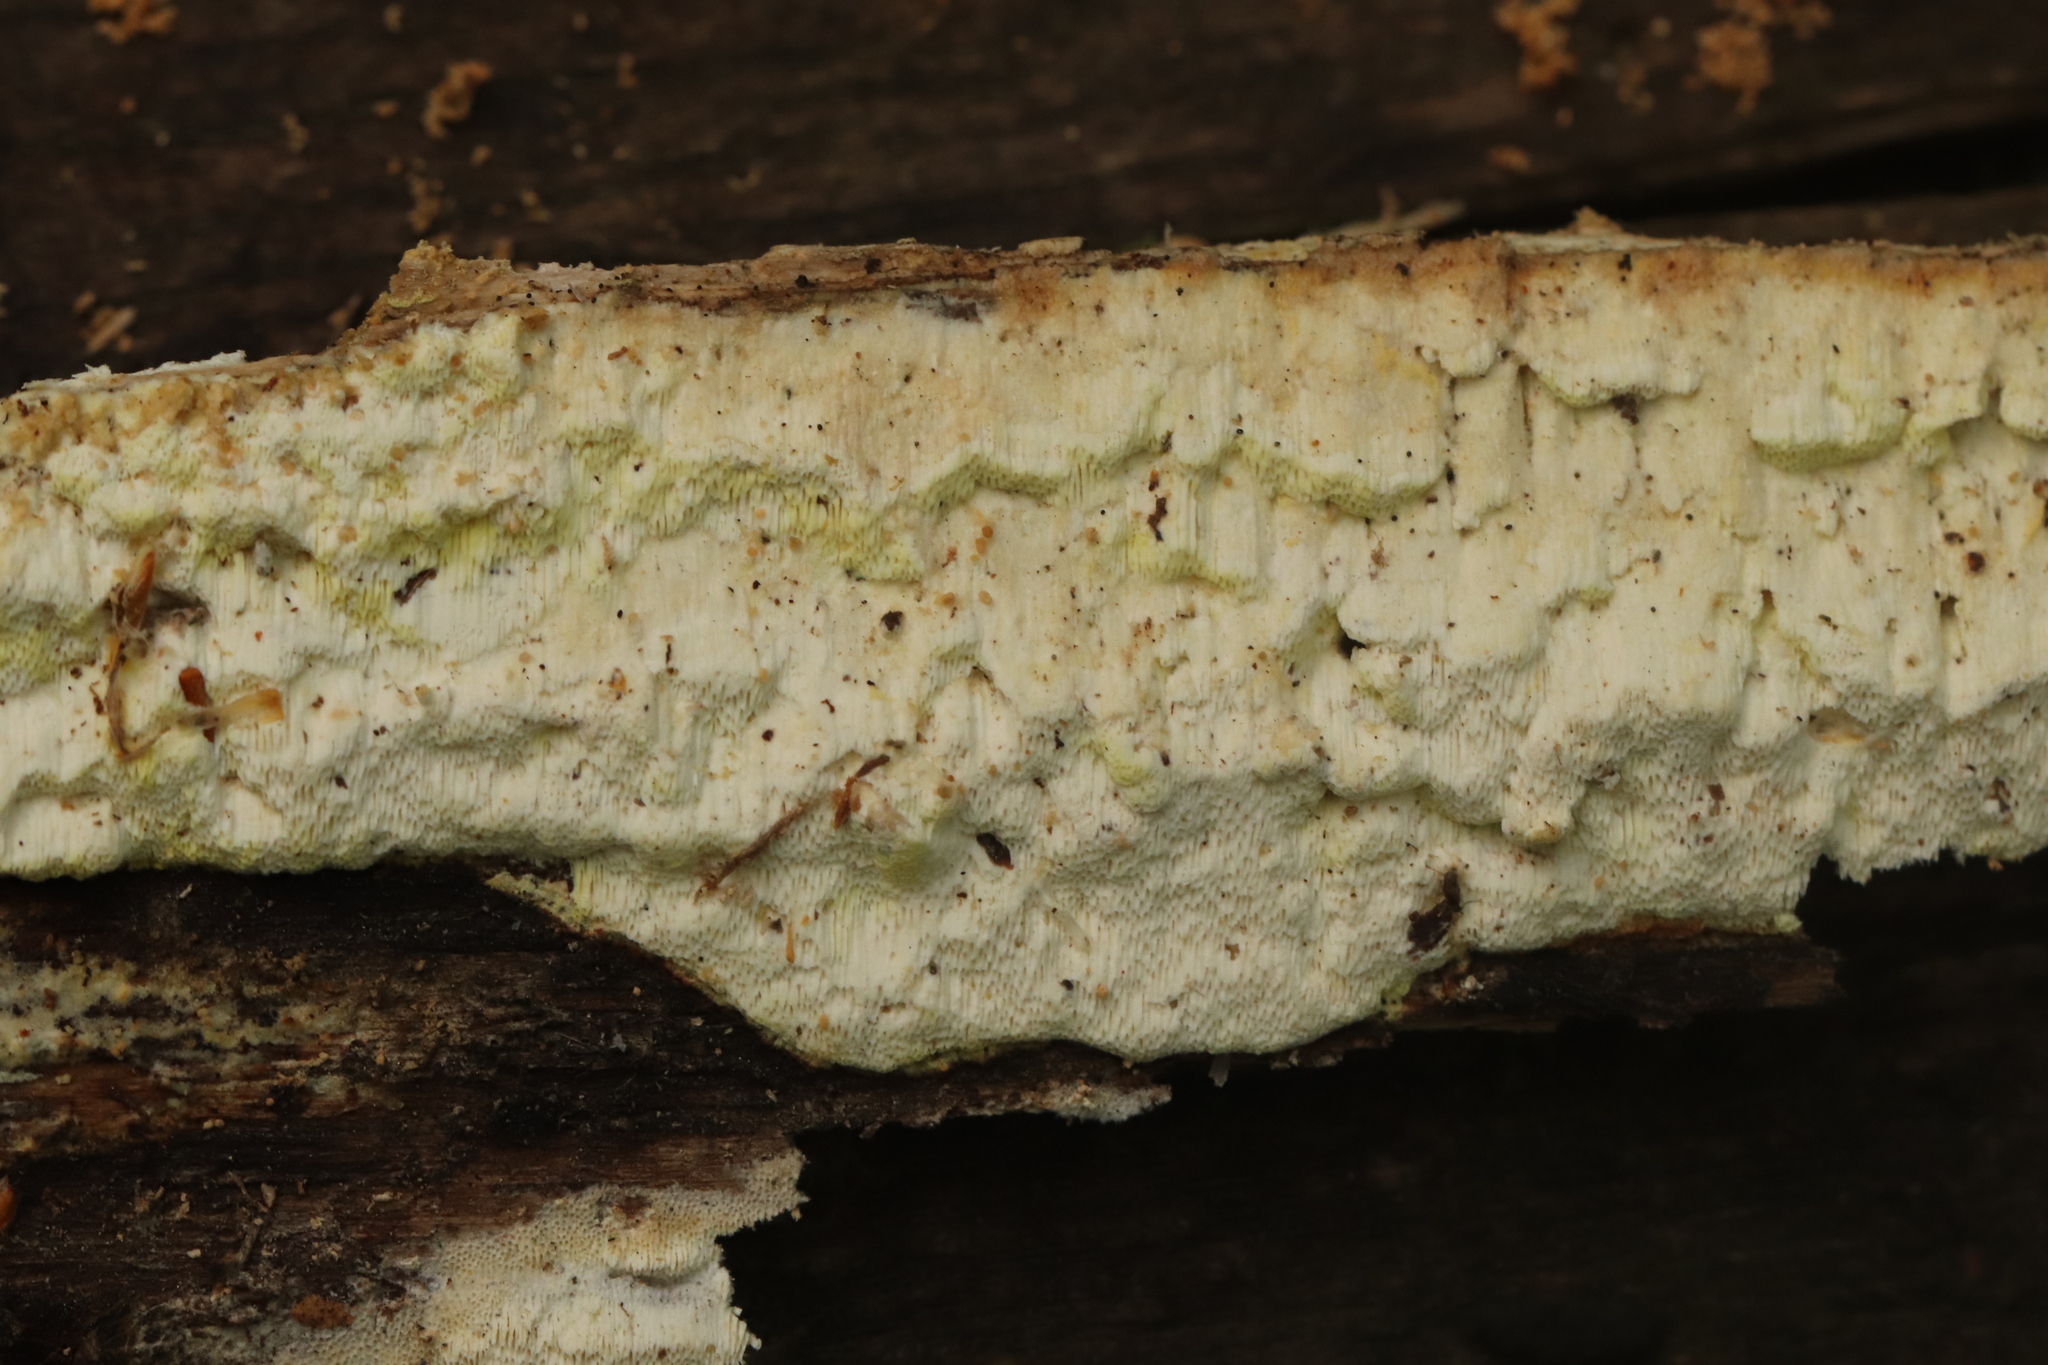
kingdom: Fungi
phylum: Basidiomycota
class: Agaricomycetes
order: Polyporales
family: Fomitopsidaceae
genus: Daedalea
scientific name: Daedalea xantha
